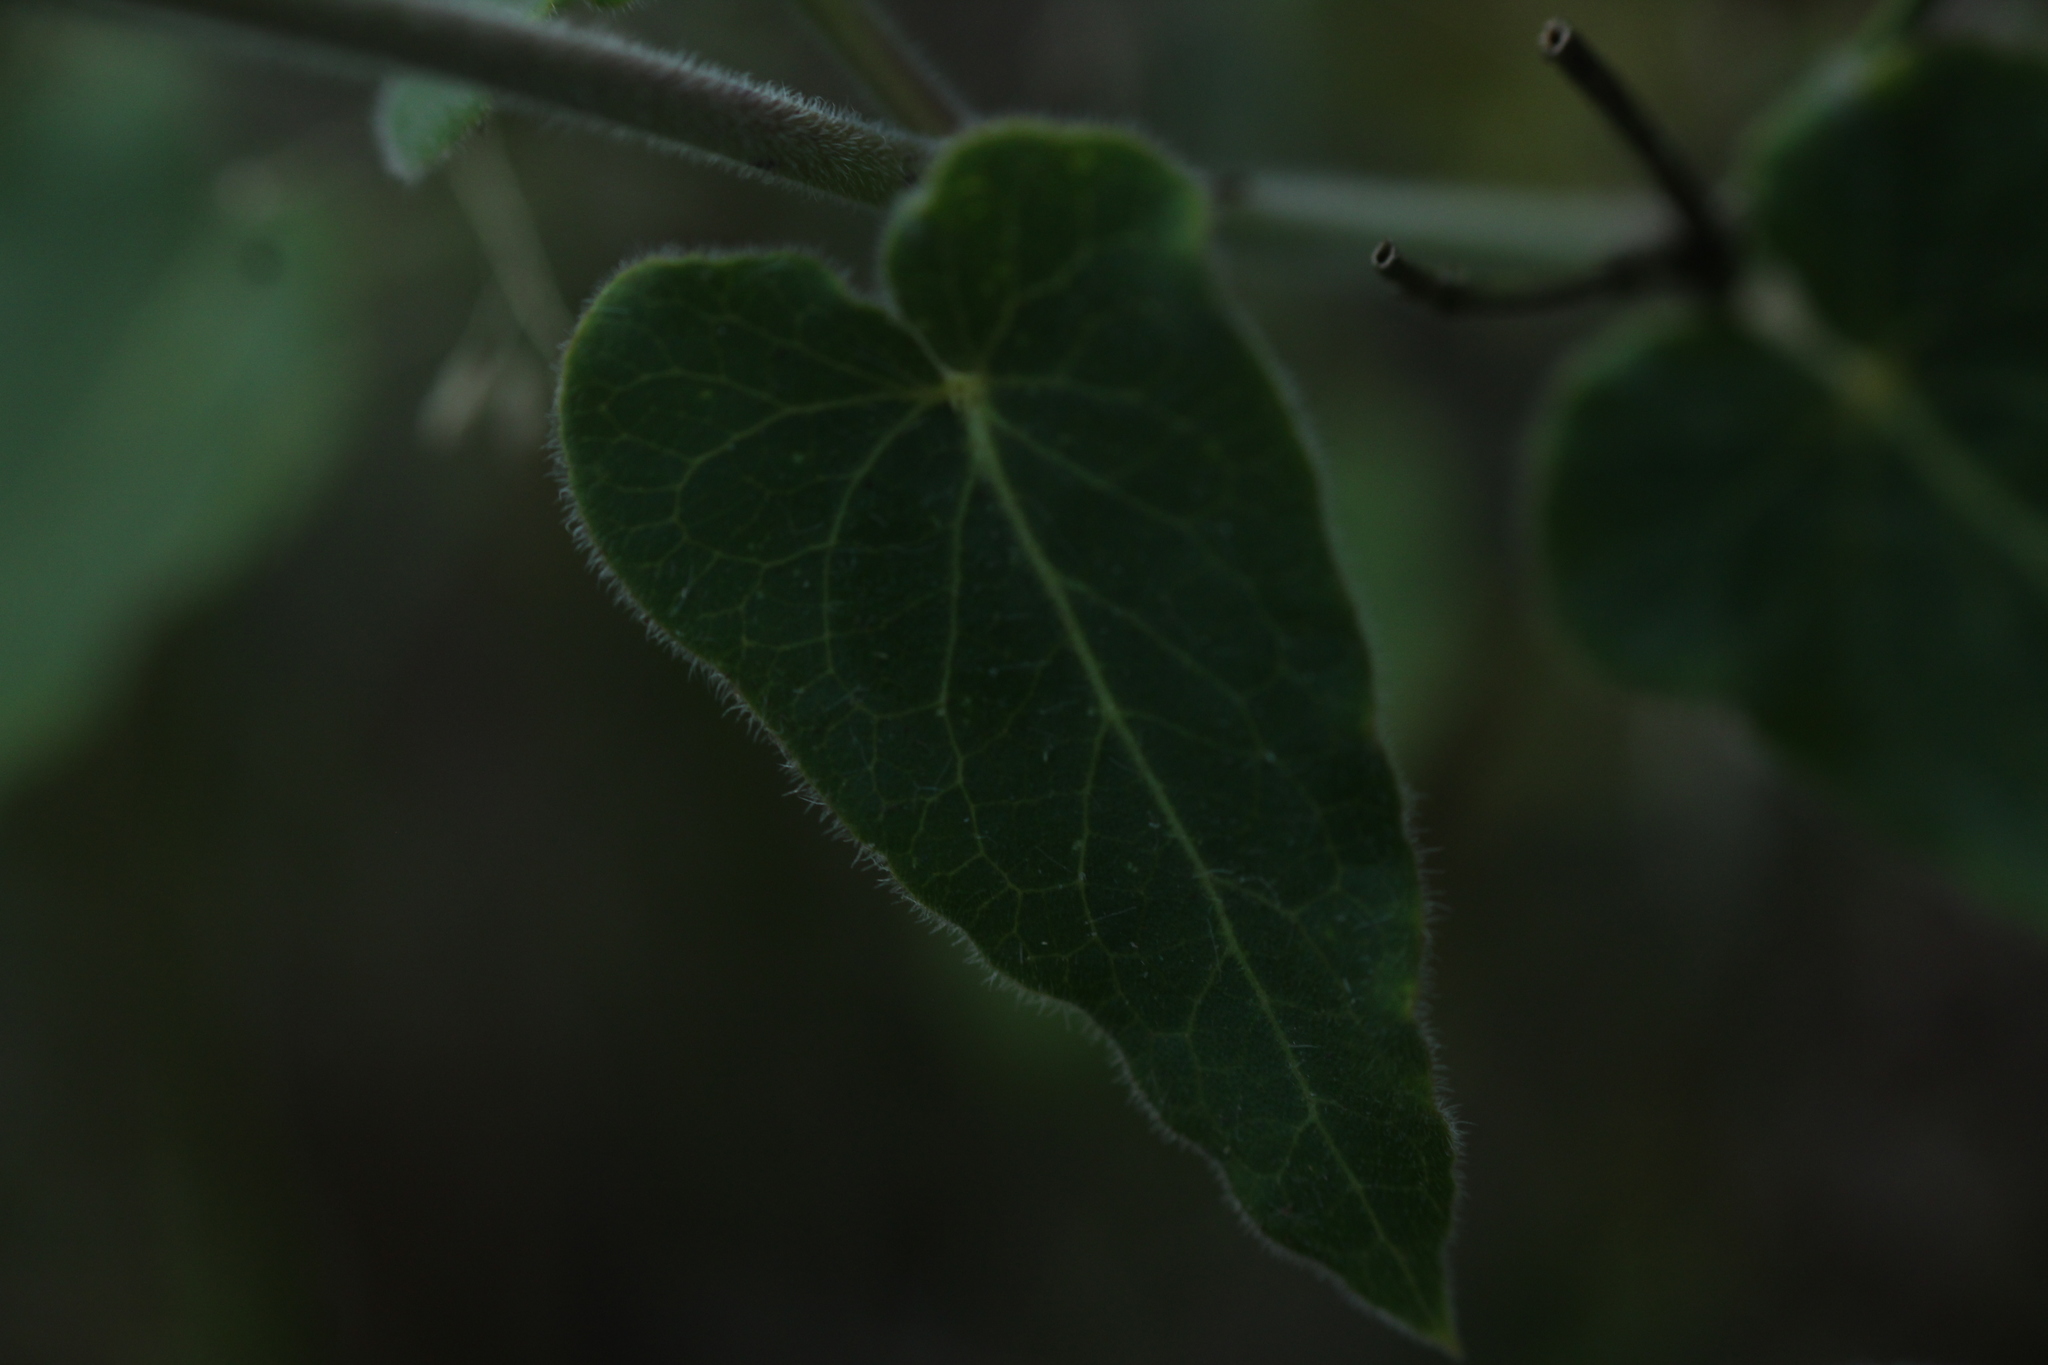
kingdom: Plantae
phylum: Tracheophyta
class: Magnoliopsida
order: Gentianales
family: Apocynaceae
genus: Oxypetalum
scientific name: Oxypetalum solanoides
